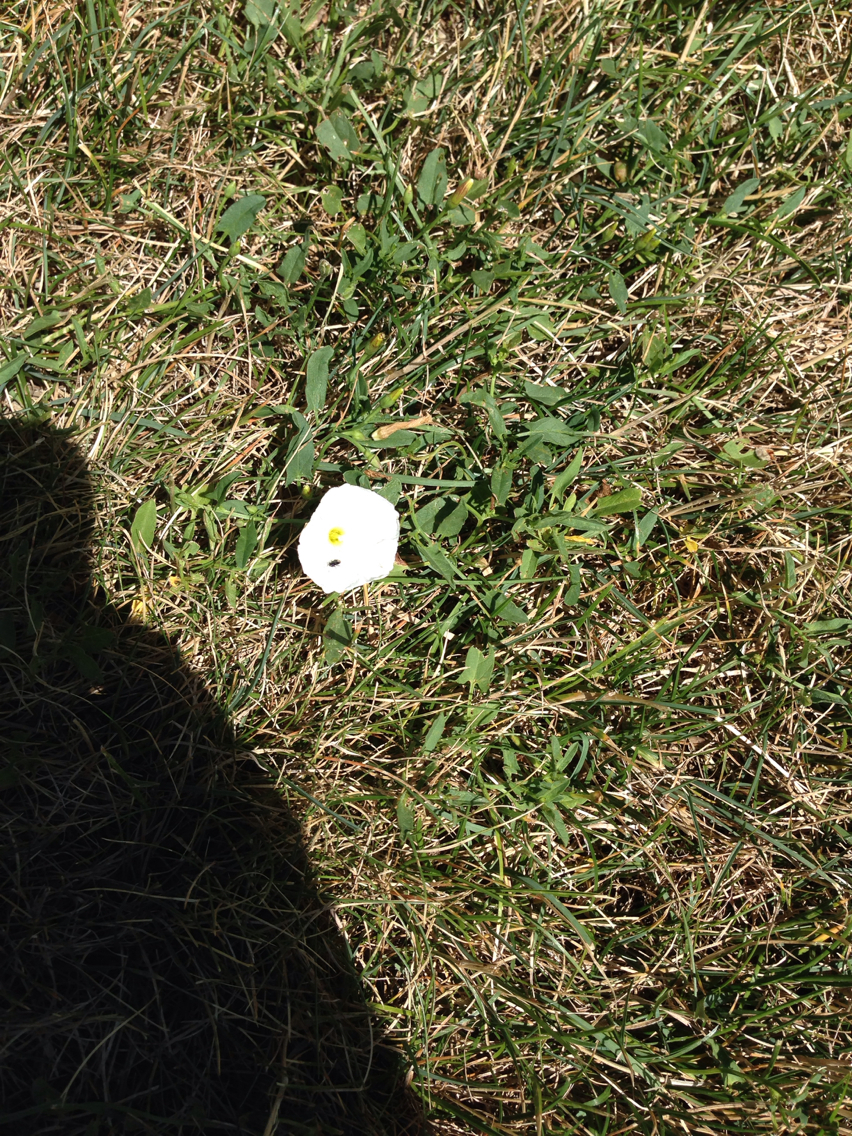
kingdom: Plantae
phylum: Tracheophyta
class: Magnoliopsida
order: Solanales
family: Convolvulaceae
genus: Convolvulus
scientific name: Convolvulus arvensis
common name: Field bindweed
